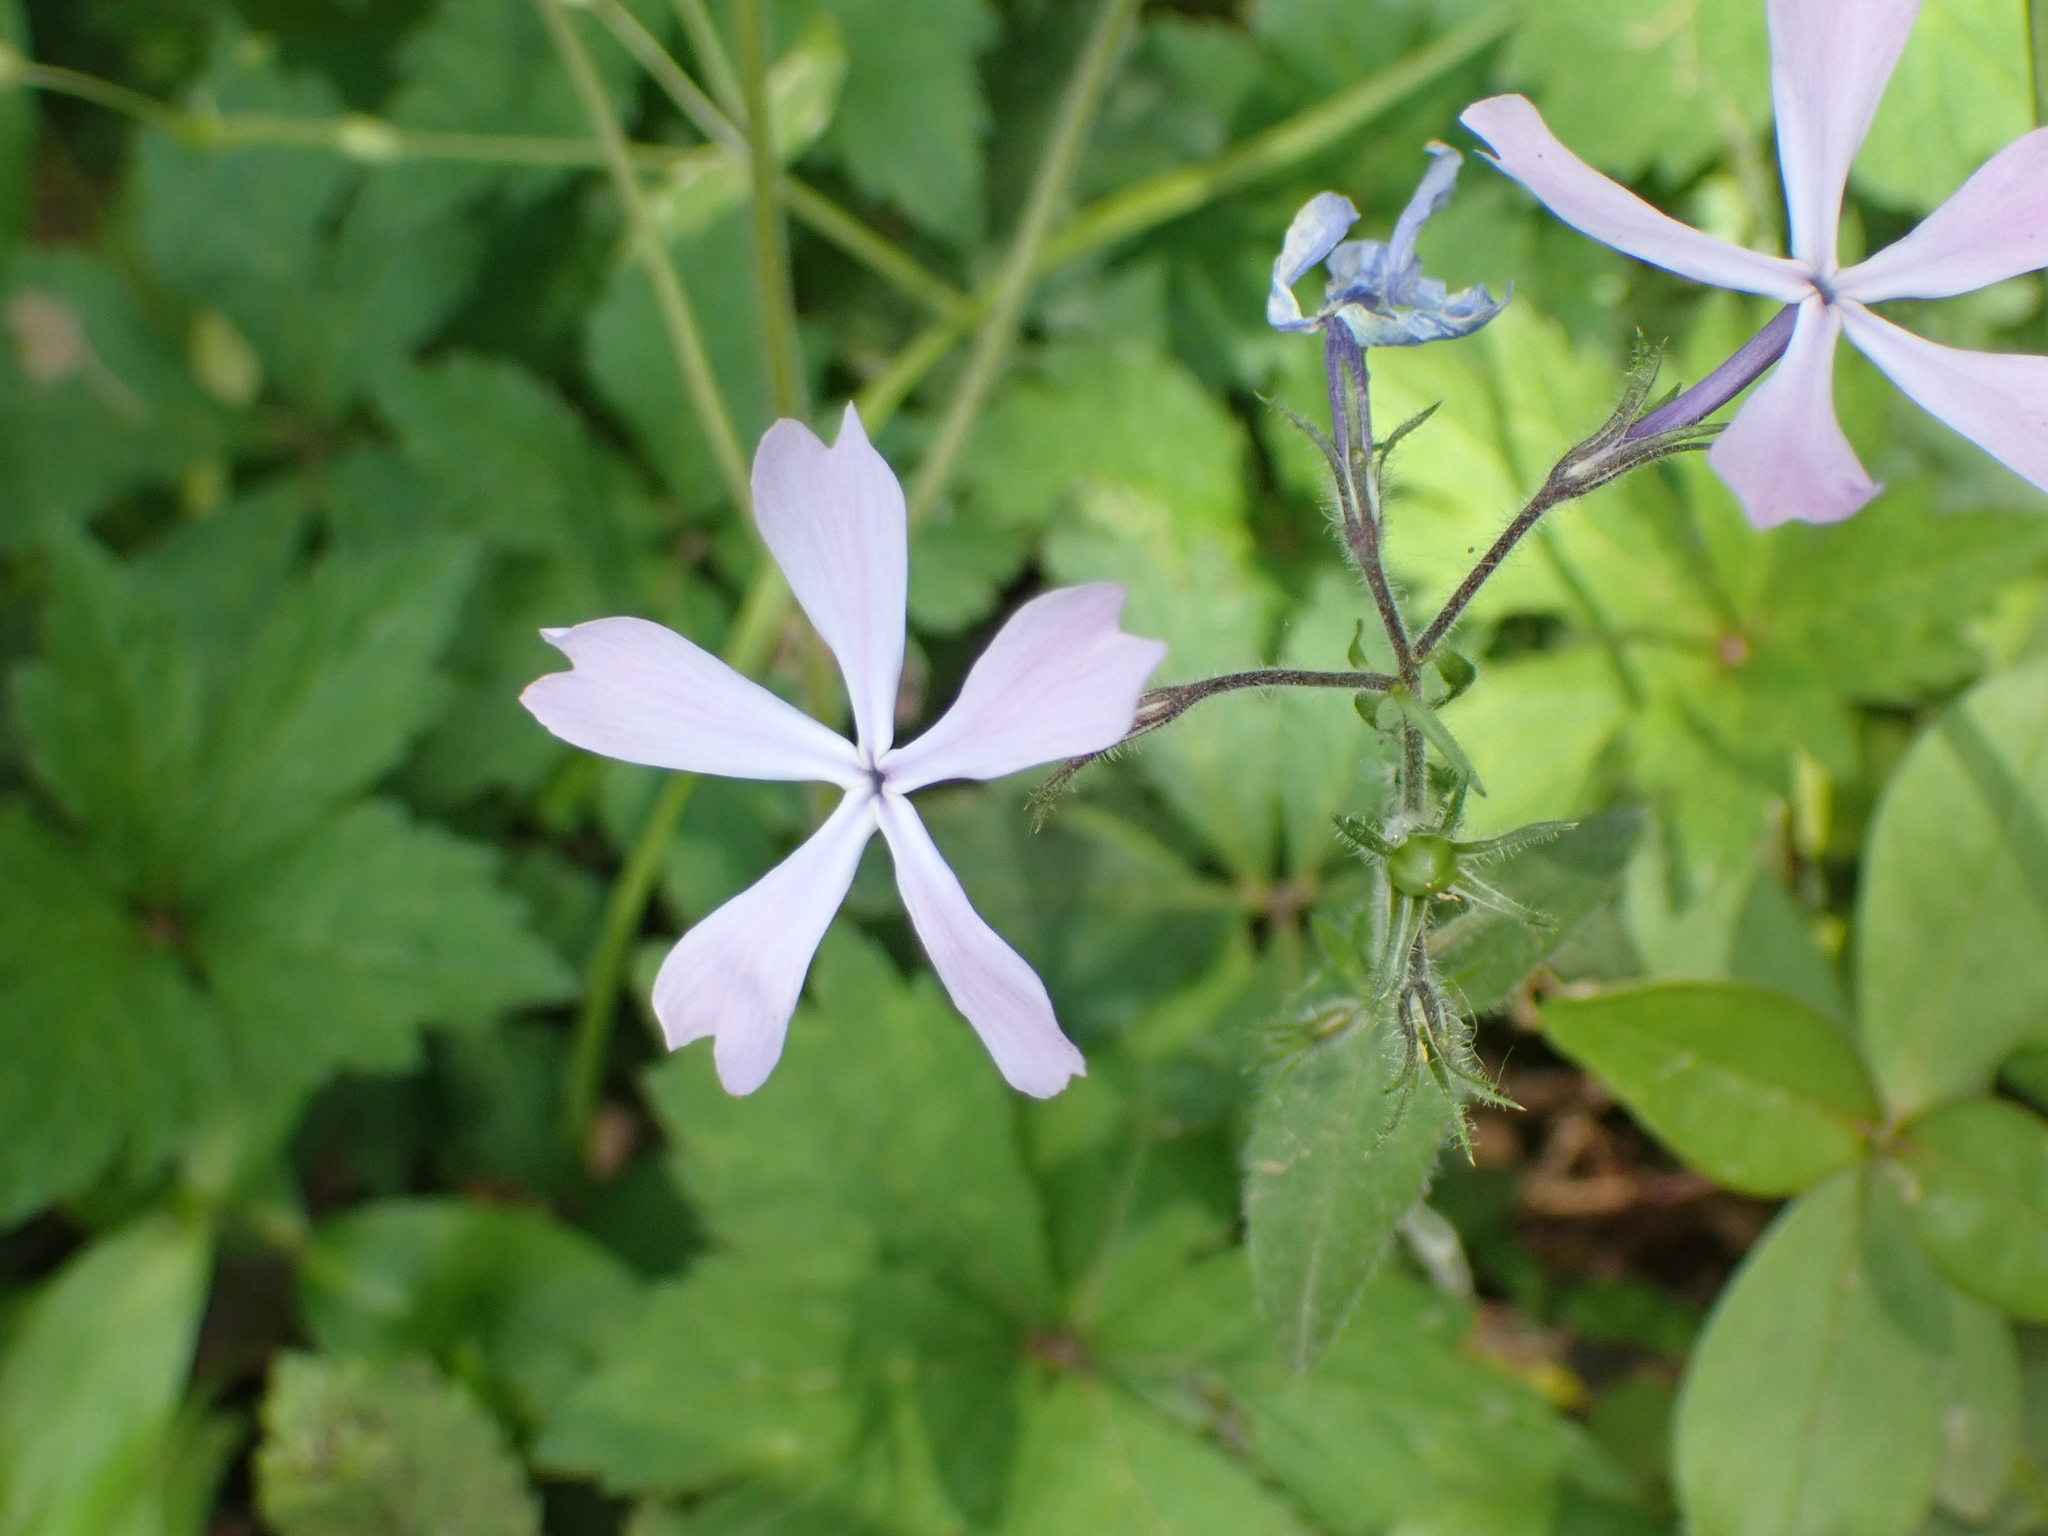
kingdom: Plantae
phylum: Tracheophyta
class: Magnoliopsida
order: Ericales
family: Polemoniaceae
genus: Phlox
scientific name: Phlox divaricata
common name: Blue phlox
